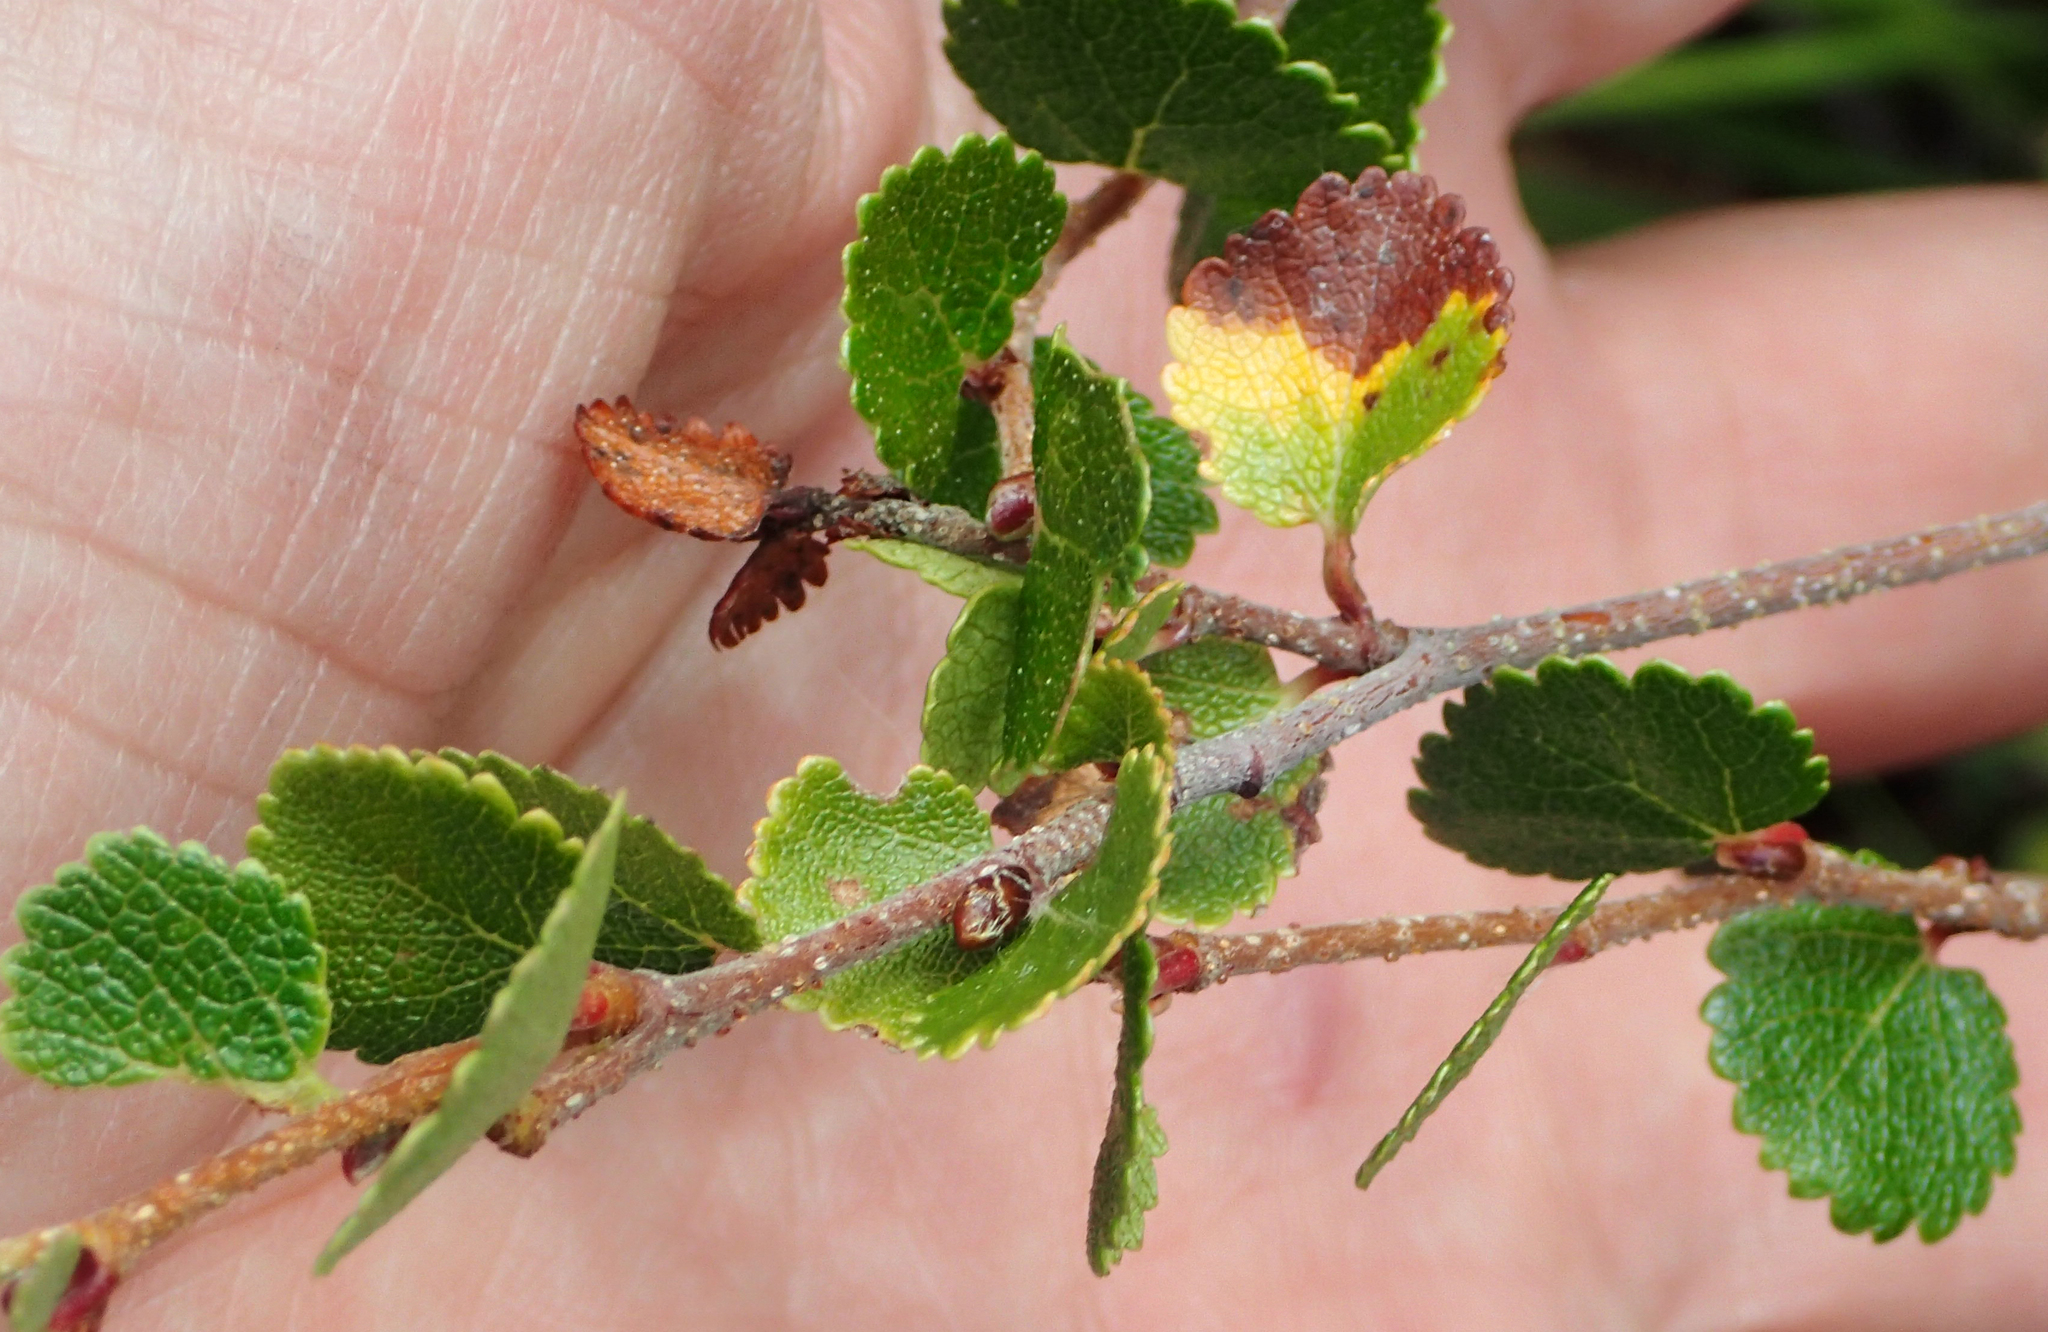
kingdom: Plantae
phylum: Tracheophyta
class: Magnoliopsida
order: Fagales
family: Betulaceae
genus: Betula
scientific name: Betula nana
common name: Arctic dwarf birch
